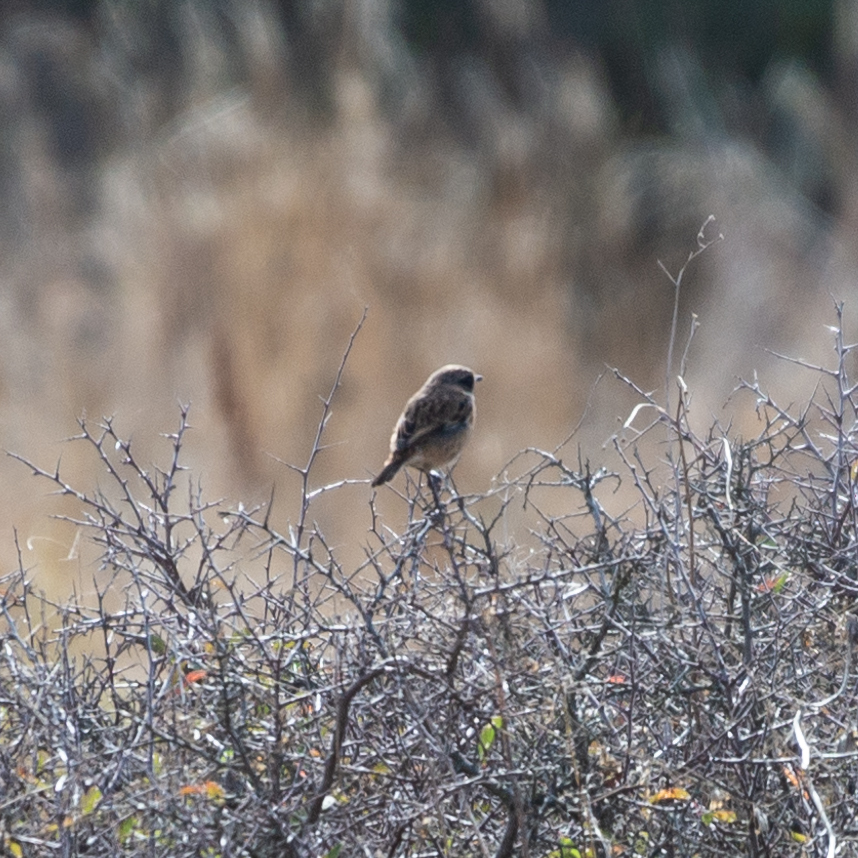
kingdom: Animalia
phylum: Chordata
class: Aves
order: Passeriformes
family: Muscicapidae
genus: Saxicola
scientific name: Saxicola rubicola
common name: European stonechat
